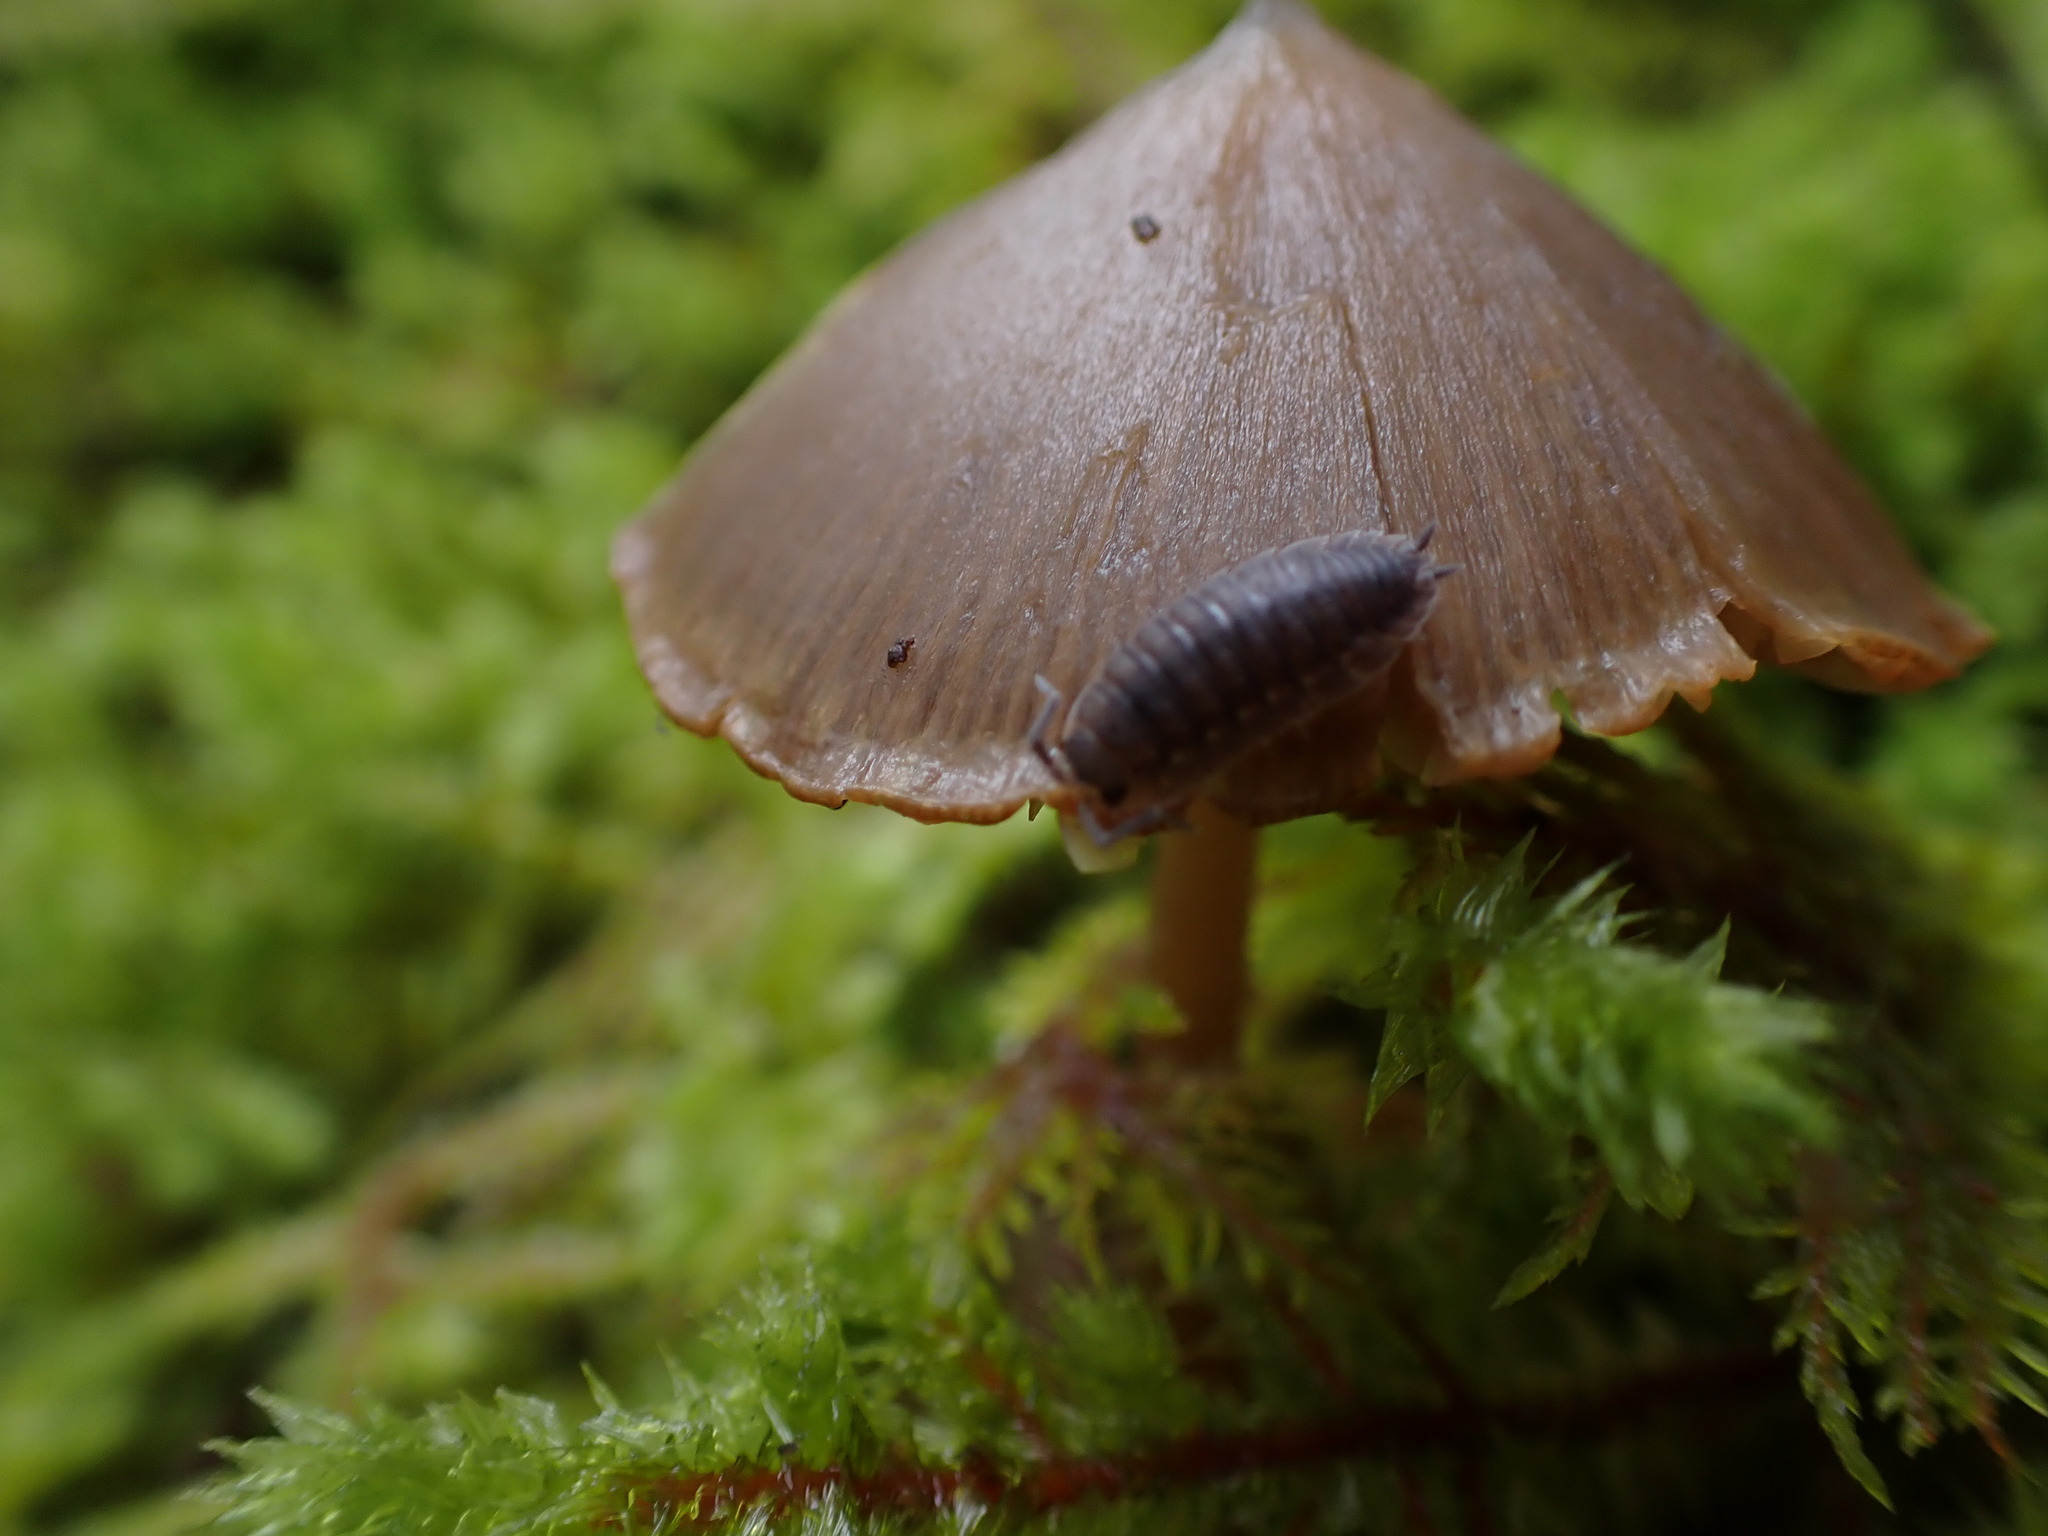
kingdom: Animalia
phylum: Arthropoda
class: Malacostraca
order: Isopoda
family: Porcellionidae
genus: Porcellio
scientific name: Porcellio scaber
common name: Common rough woodlouse
